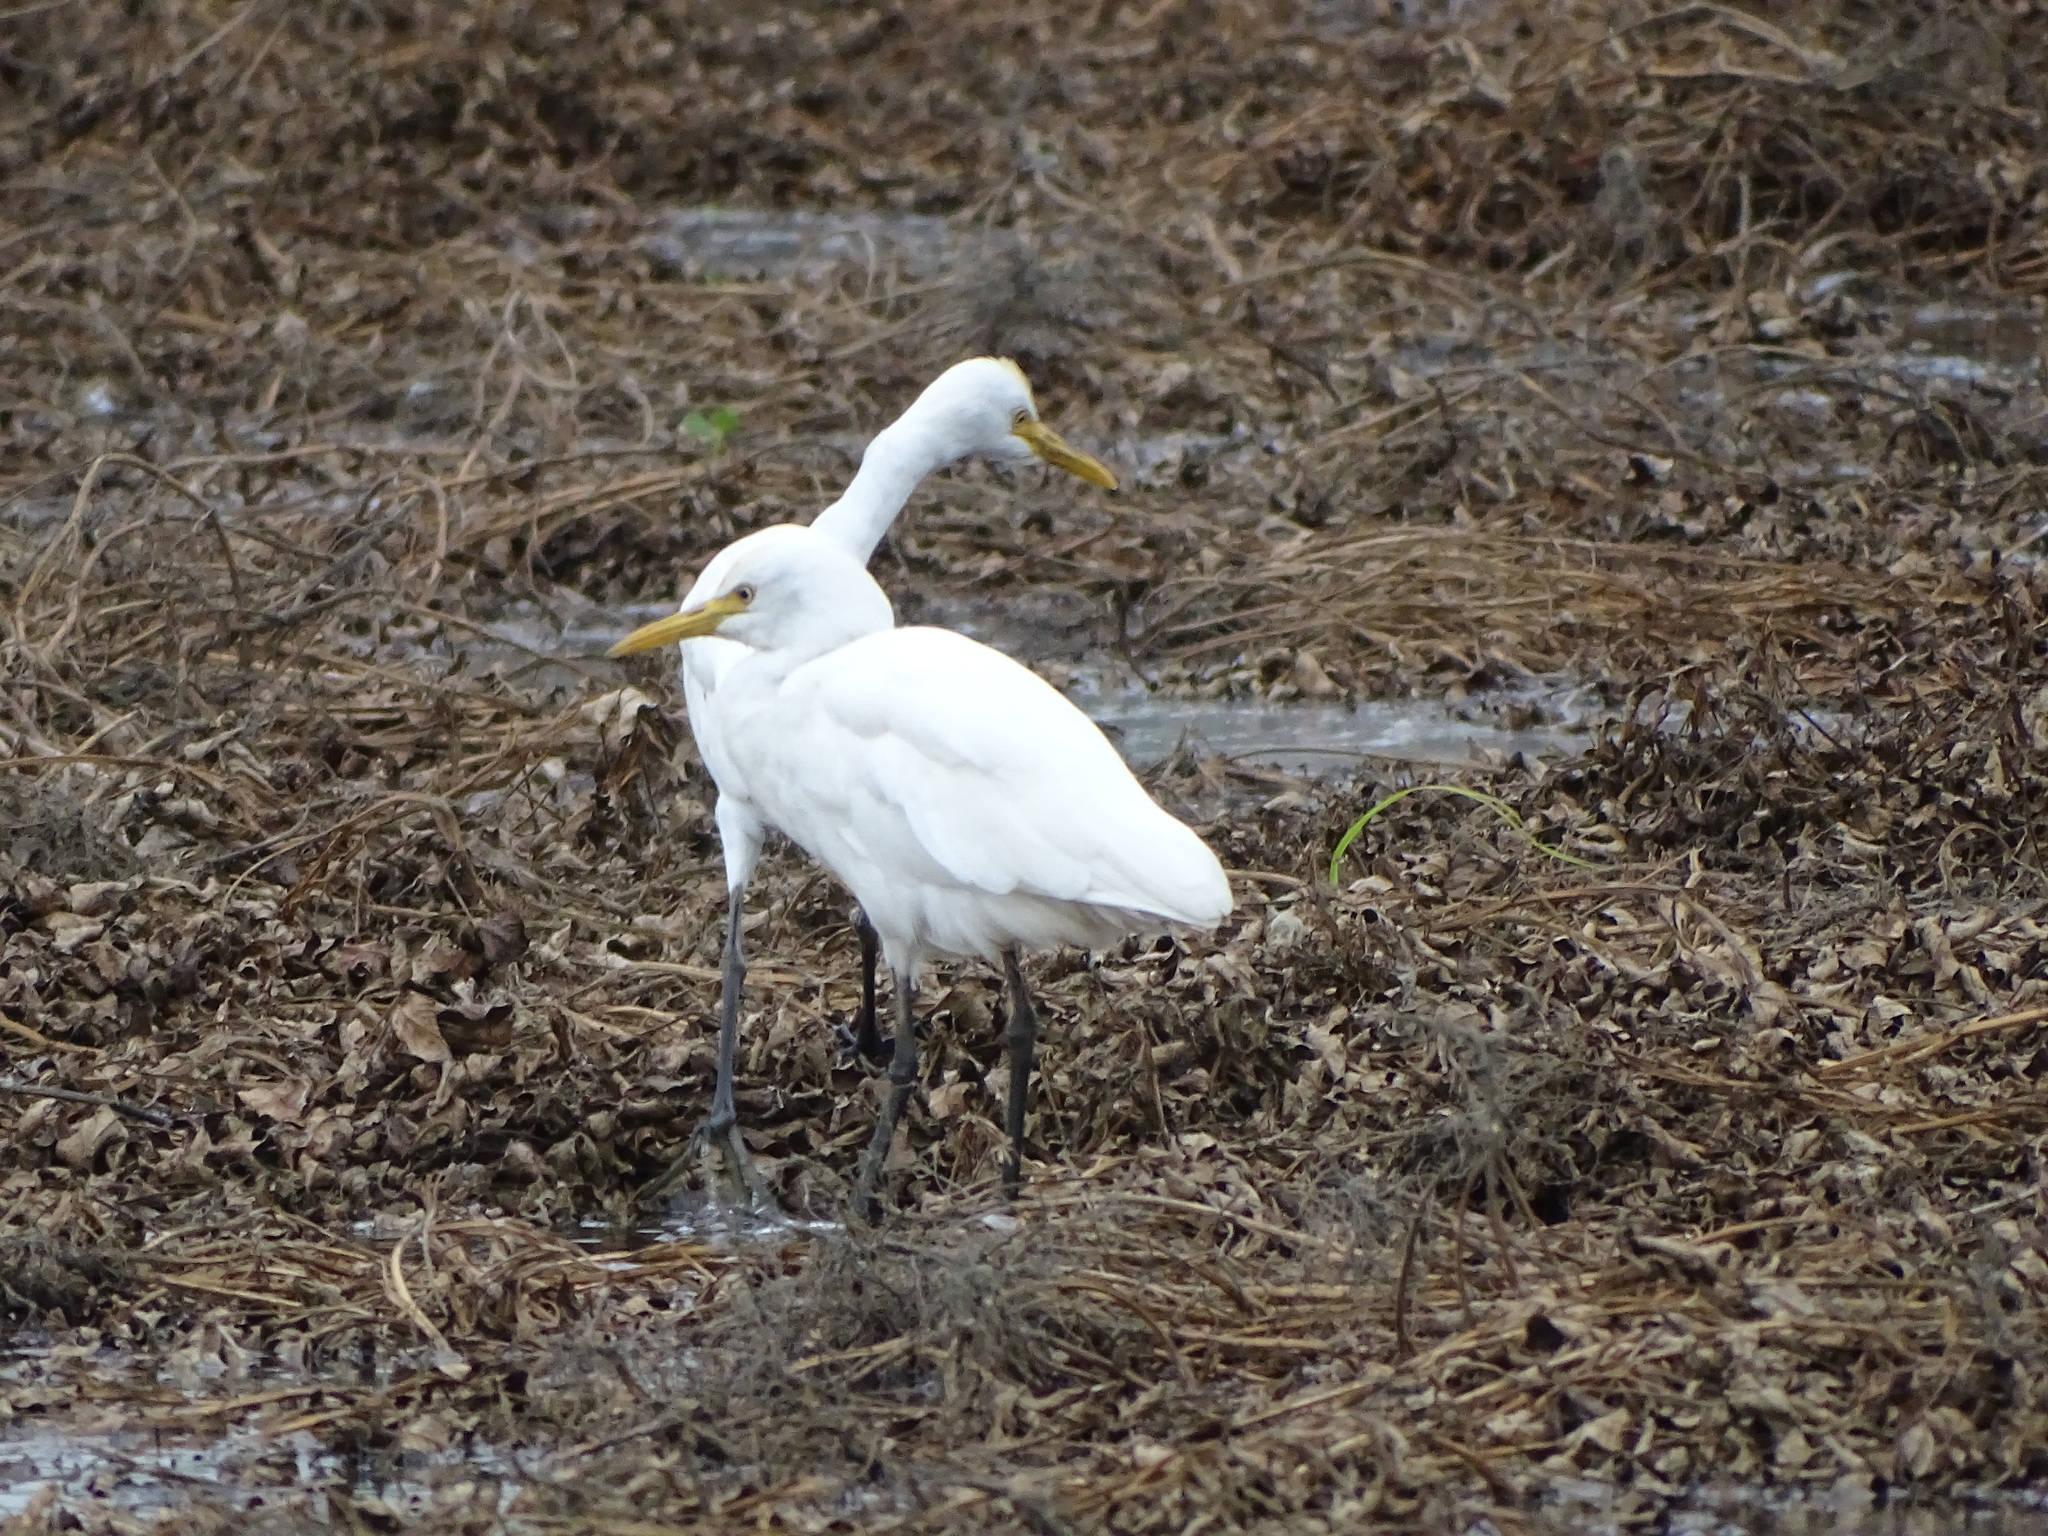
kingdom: Animalia
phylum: Chordata
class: Aves
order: Pelecaniformes
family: Ardeidae
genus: Bubulcus
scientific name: Bubulcus coromandus
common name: Eastern cattle egret
